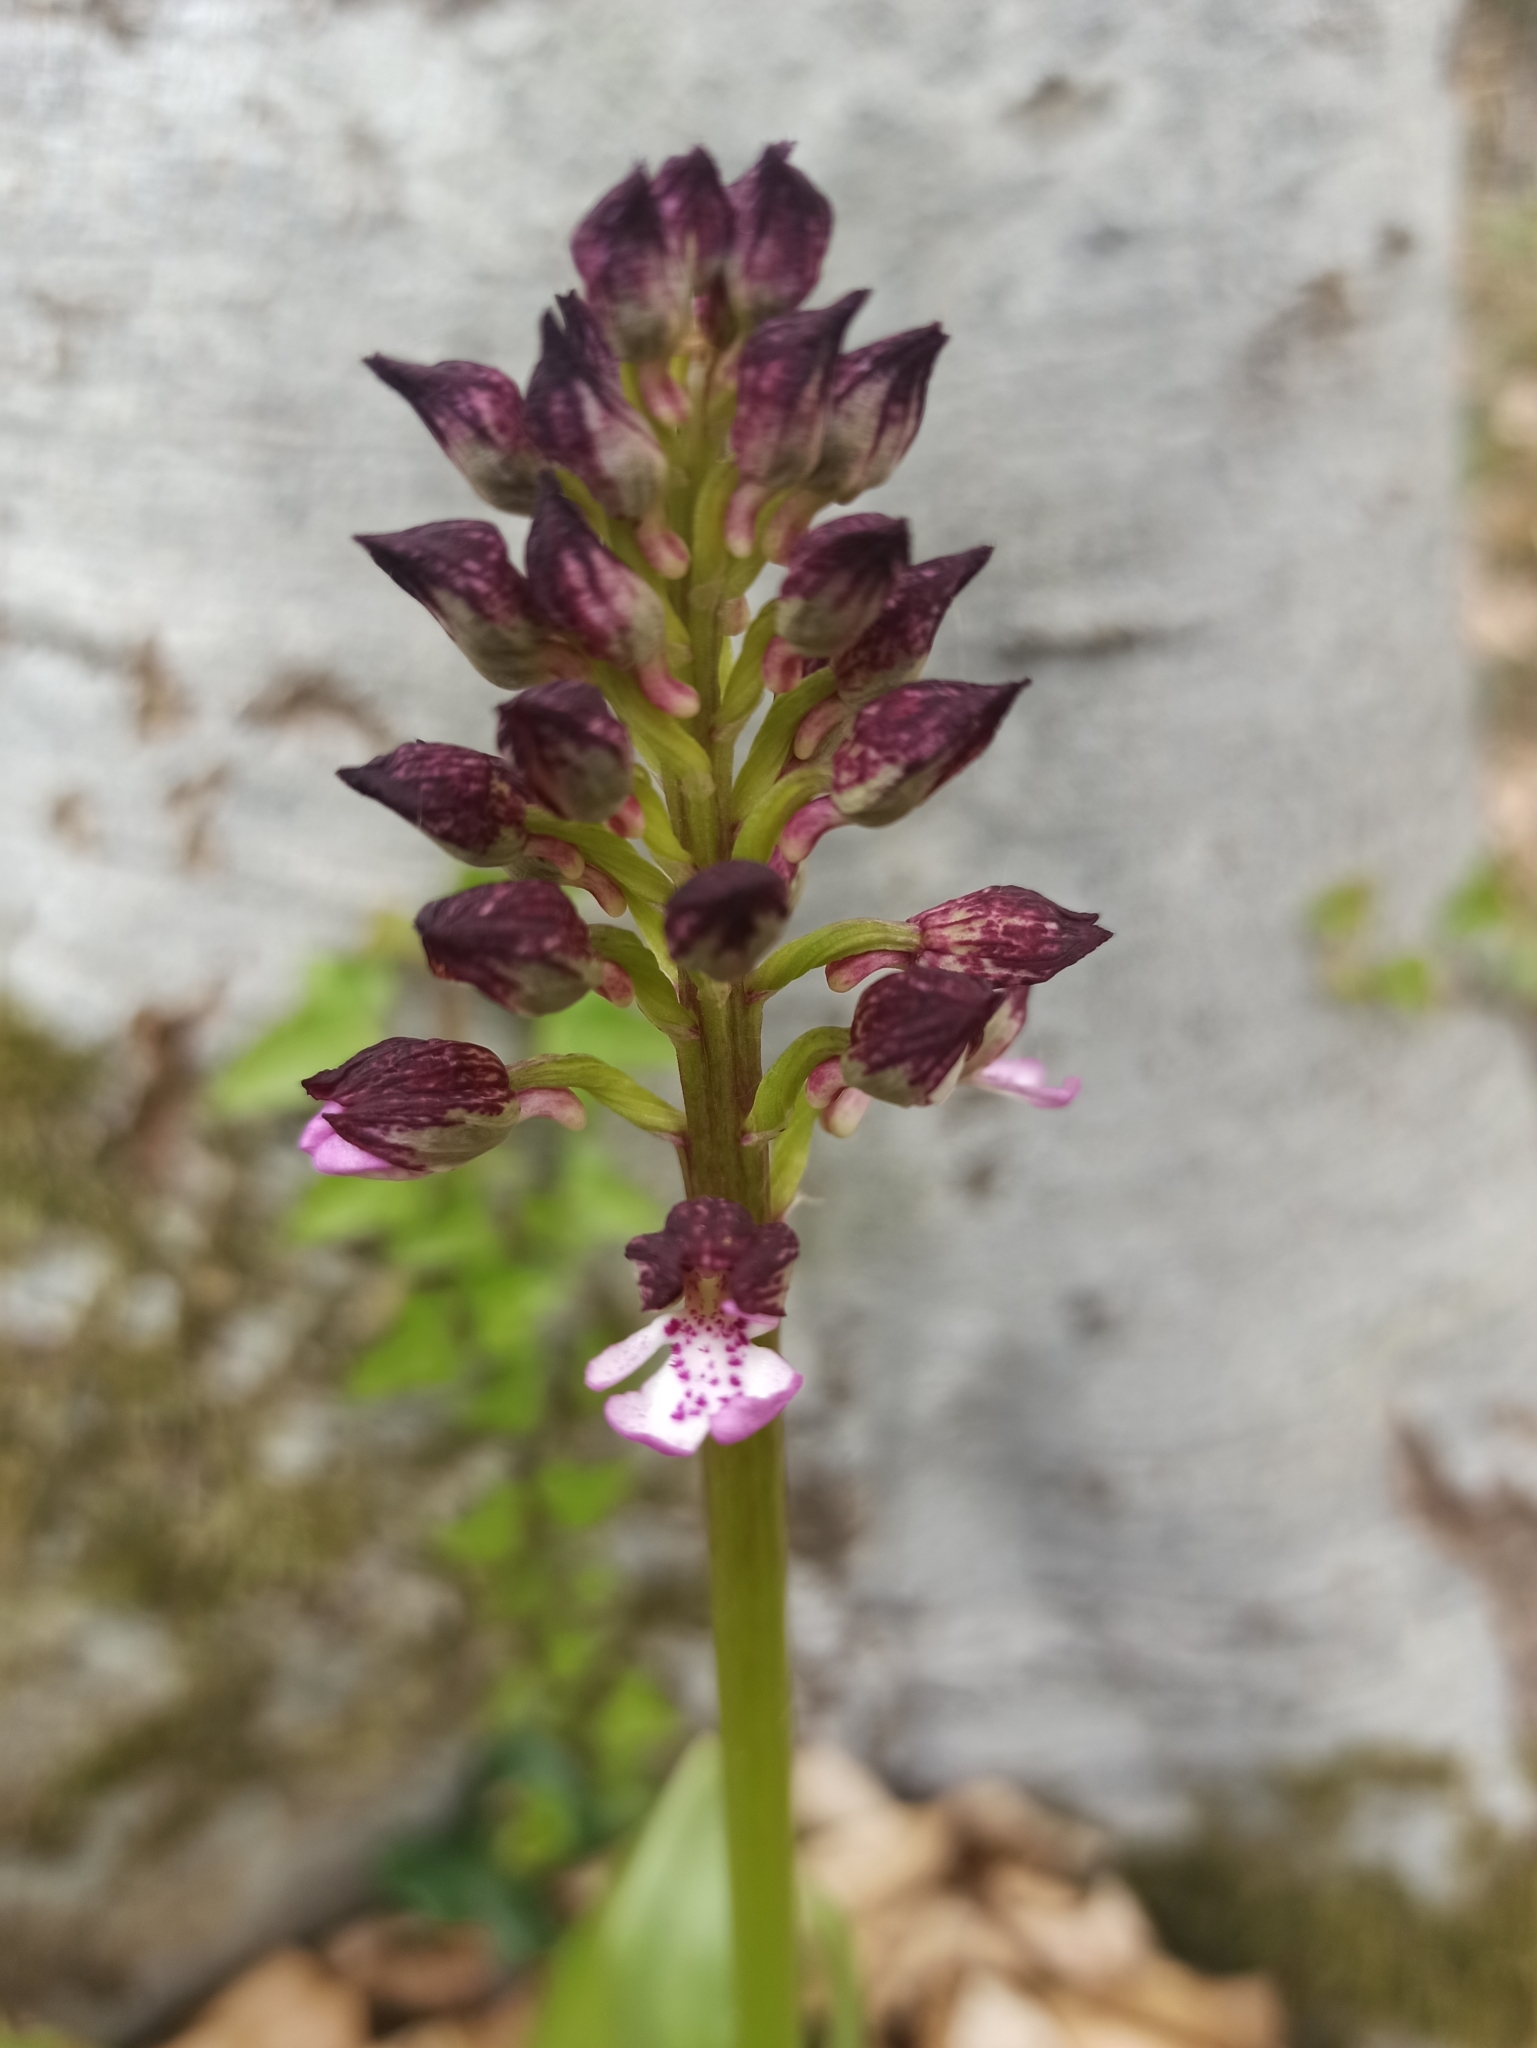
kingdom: Plantae
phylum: Tracheophyta
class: Liliopsida
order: Asparagales
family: Orchidaceae
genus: Orchis
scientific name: Orchis purpurea
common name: Lady orchid
